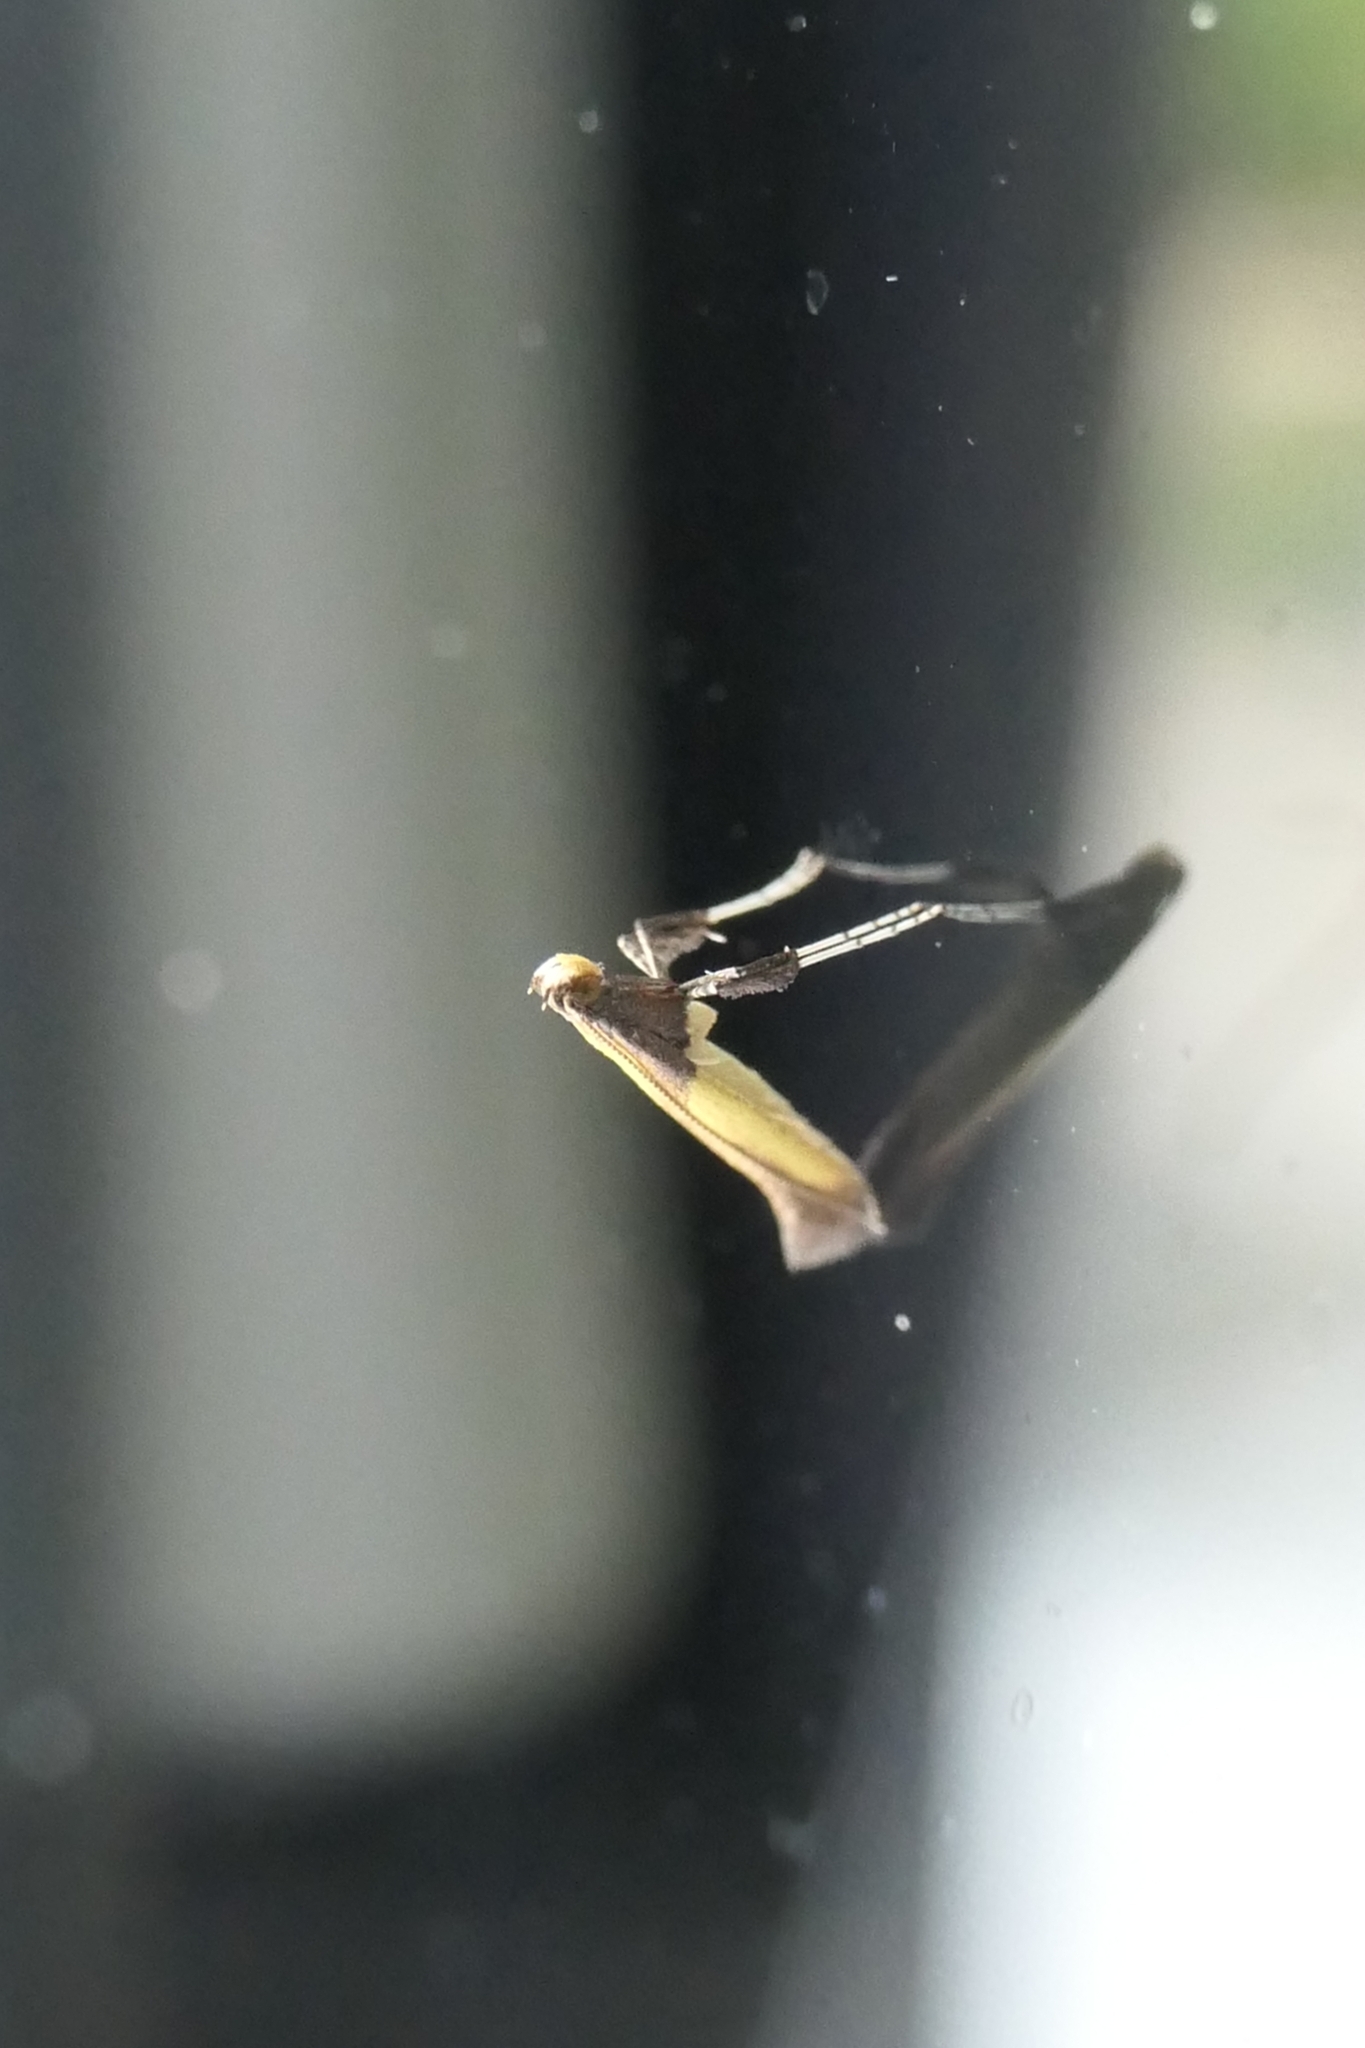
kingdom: Animalia
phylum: Arthropoda
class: Insecta
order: Lepidoptera
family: Gracillariidae
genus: Caloptilia
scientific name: Caloptilia azaleella
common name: Azalea leafminer
